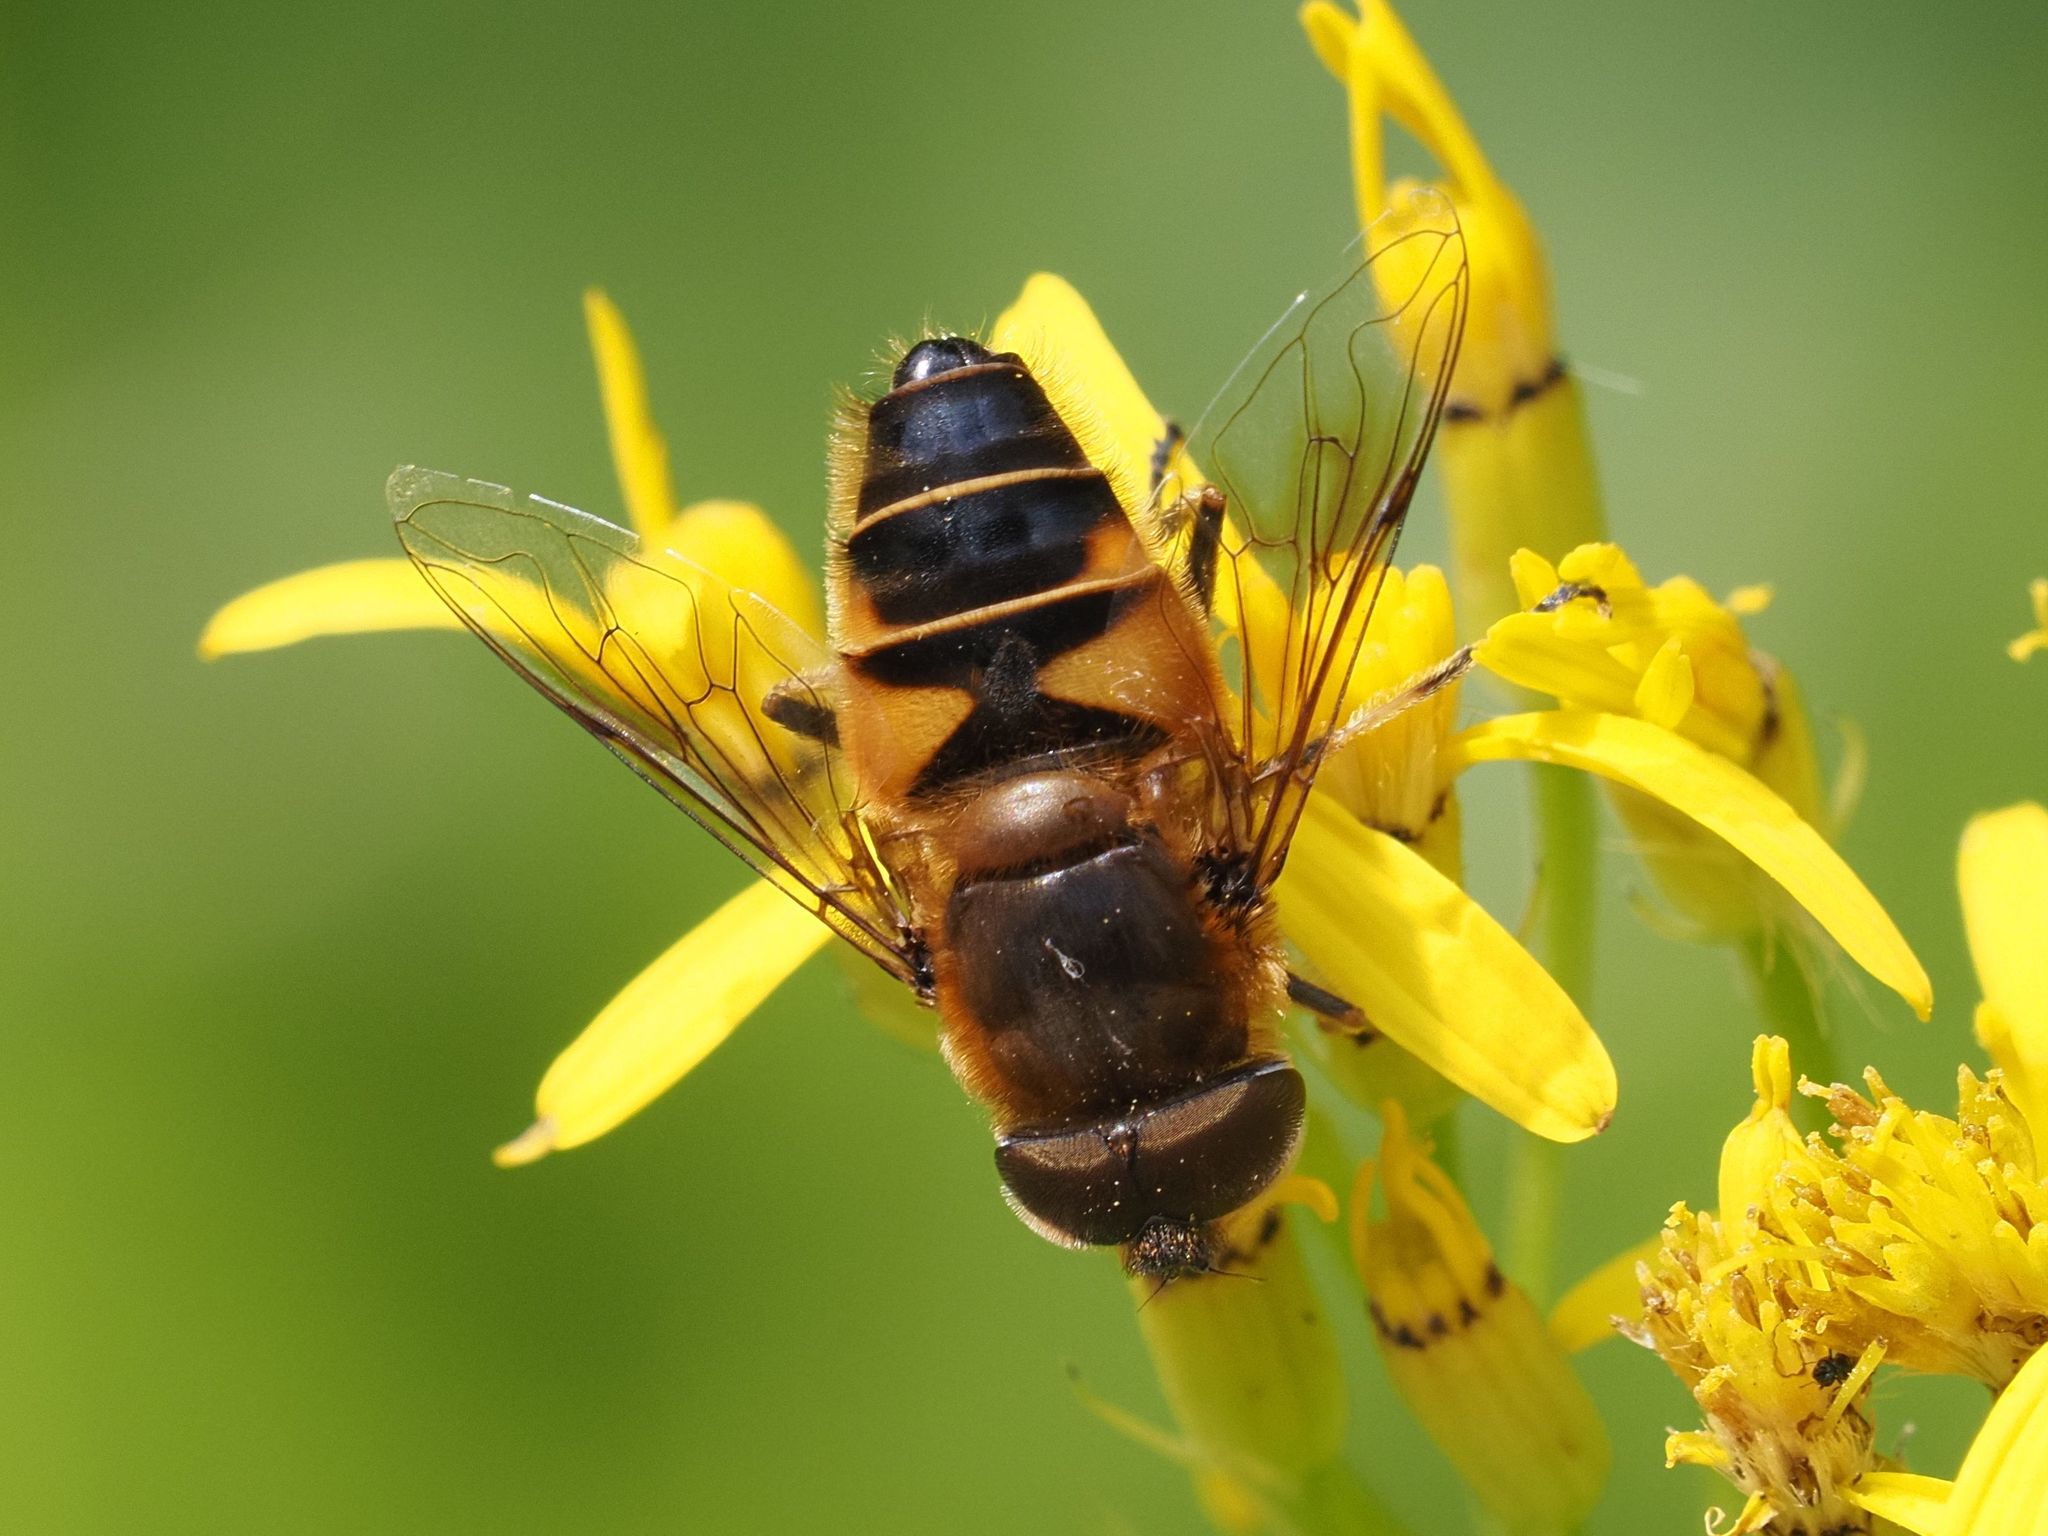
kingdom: Animalia
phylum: Arthropoda
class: Insecta
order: Diptera
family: Syrphidae
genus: Eristalis
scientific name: Eristalis tenax
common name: Drone fly
